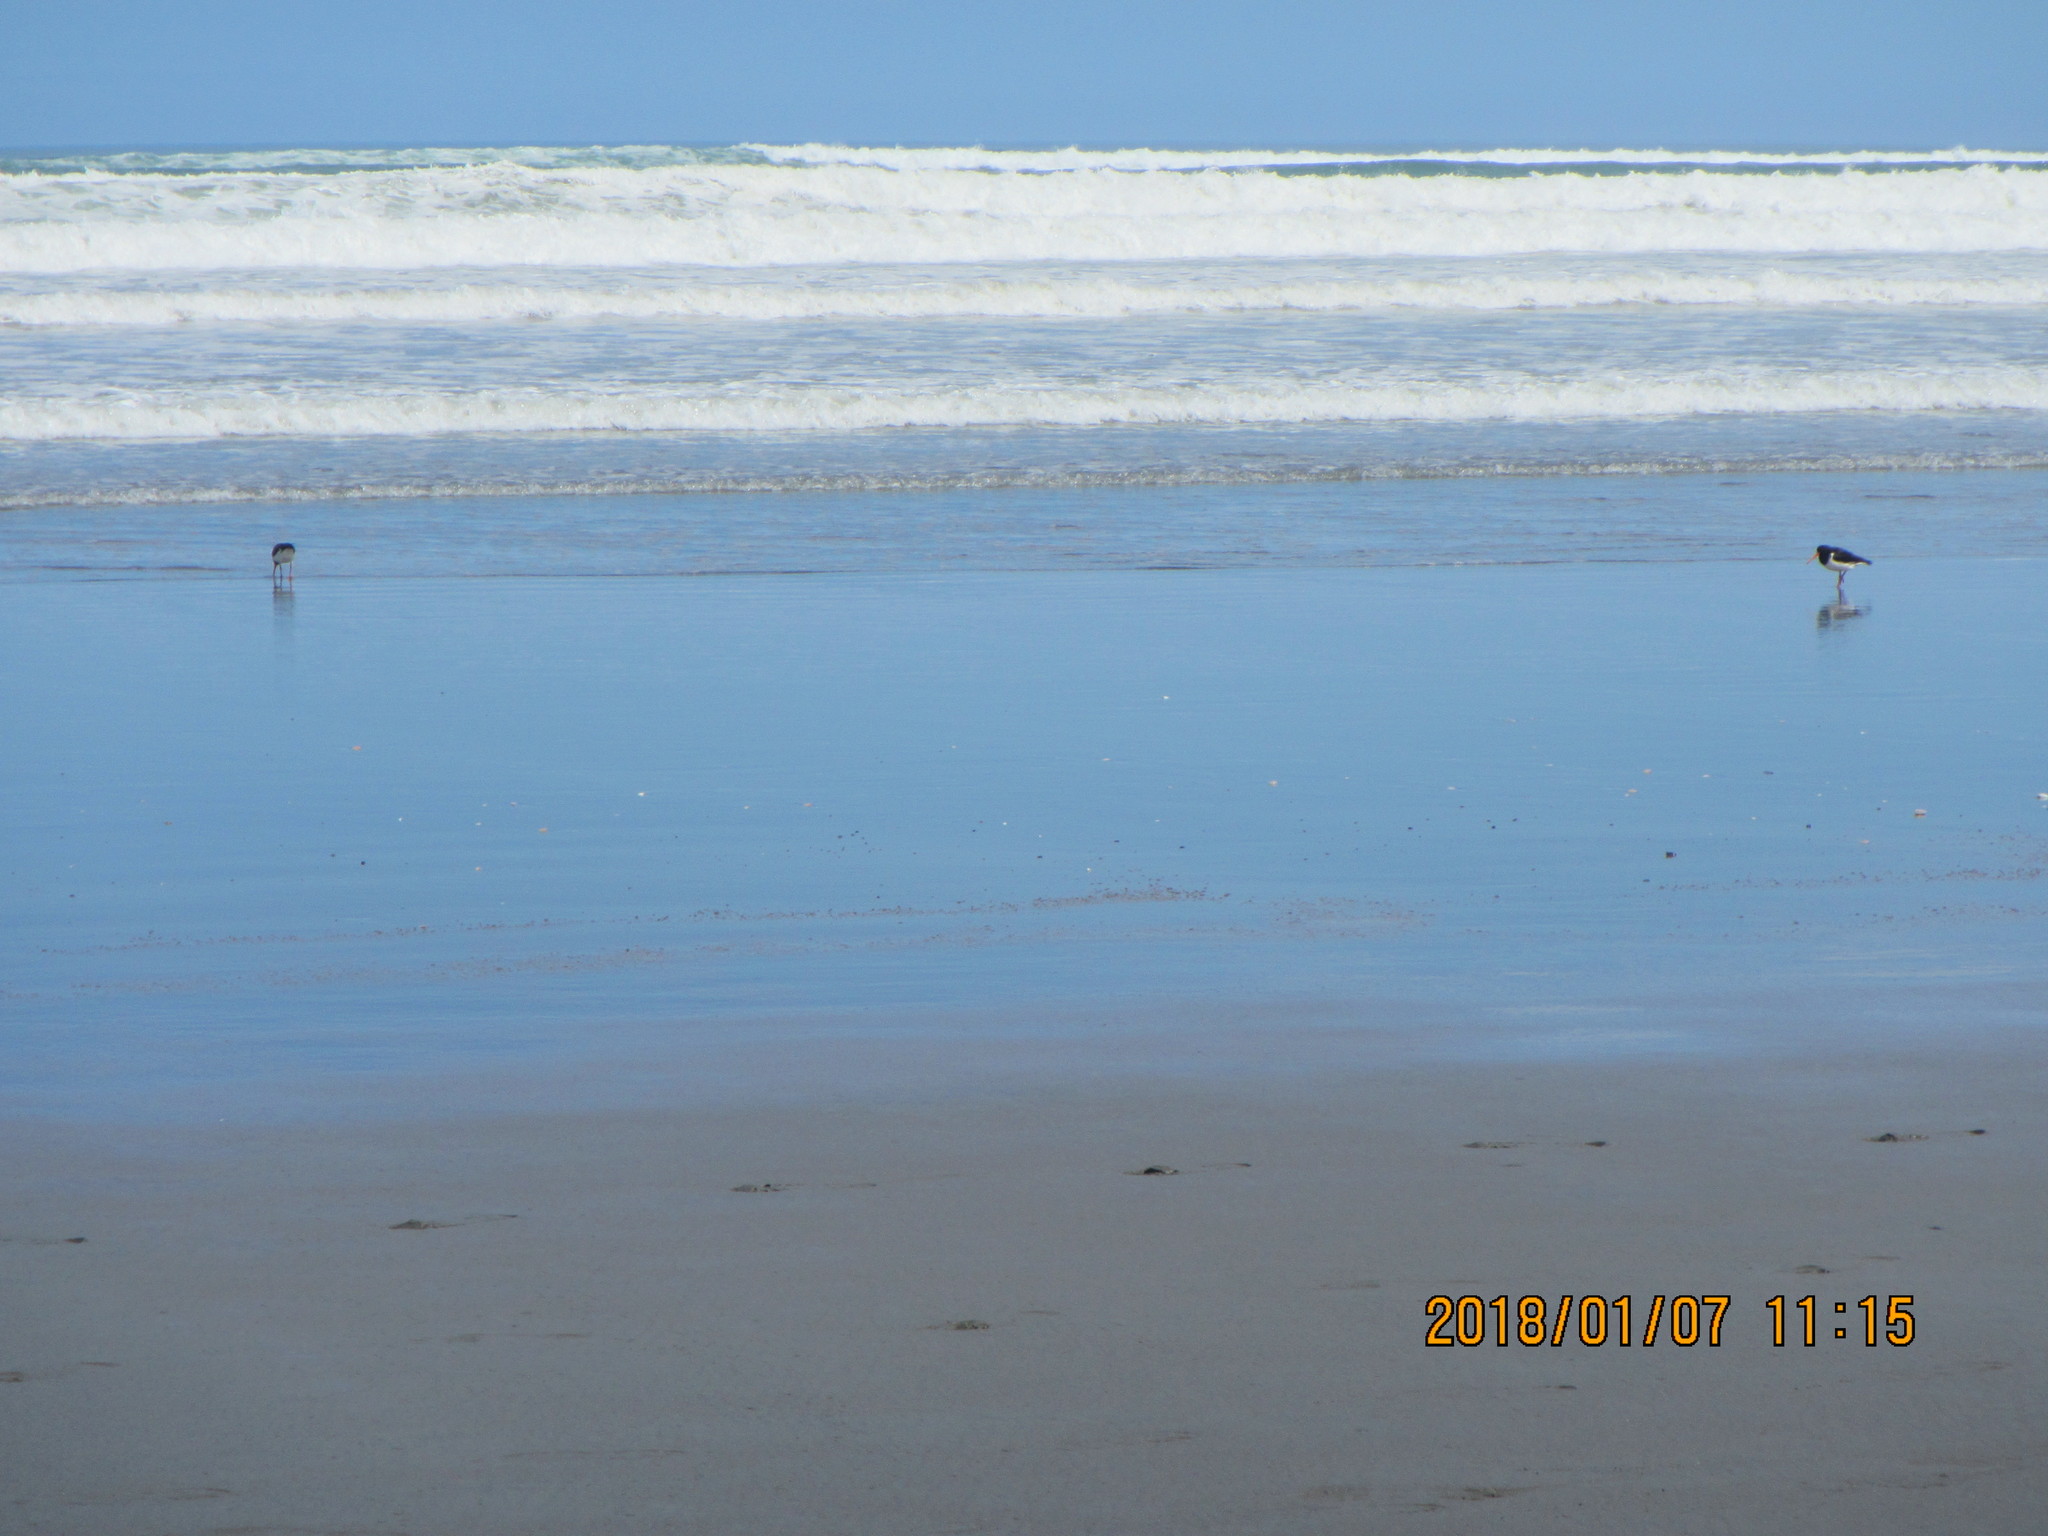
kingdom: Animalia
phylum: Chordata
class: Aves
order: Charadriiformes
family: Haematopodidae
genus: Haematopus
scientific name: Haematopus finschi
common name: South island oystercatcher
